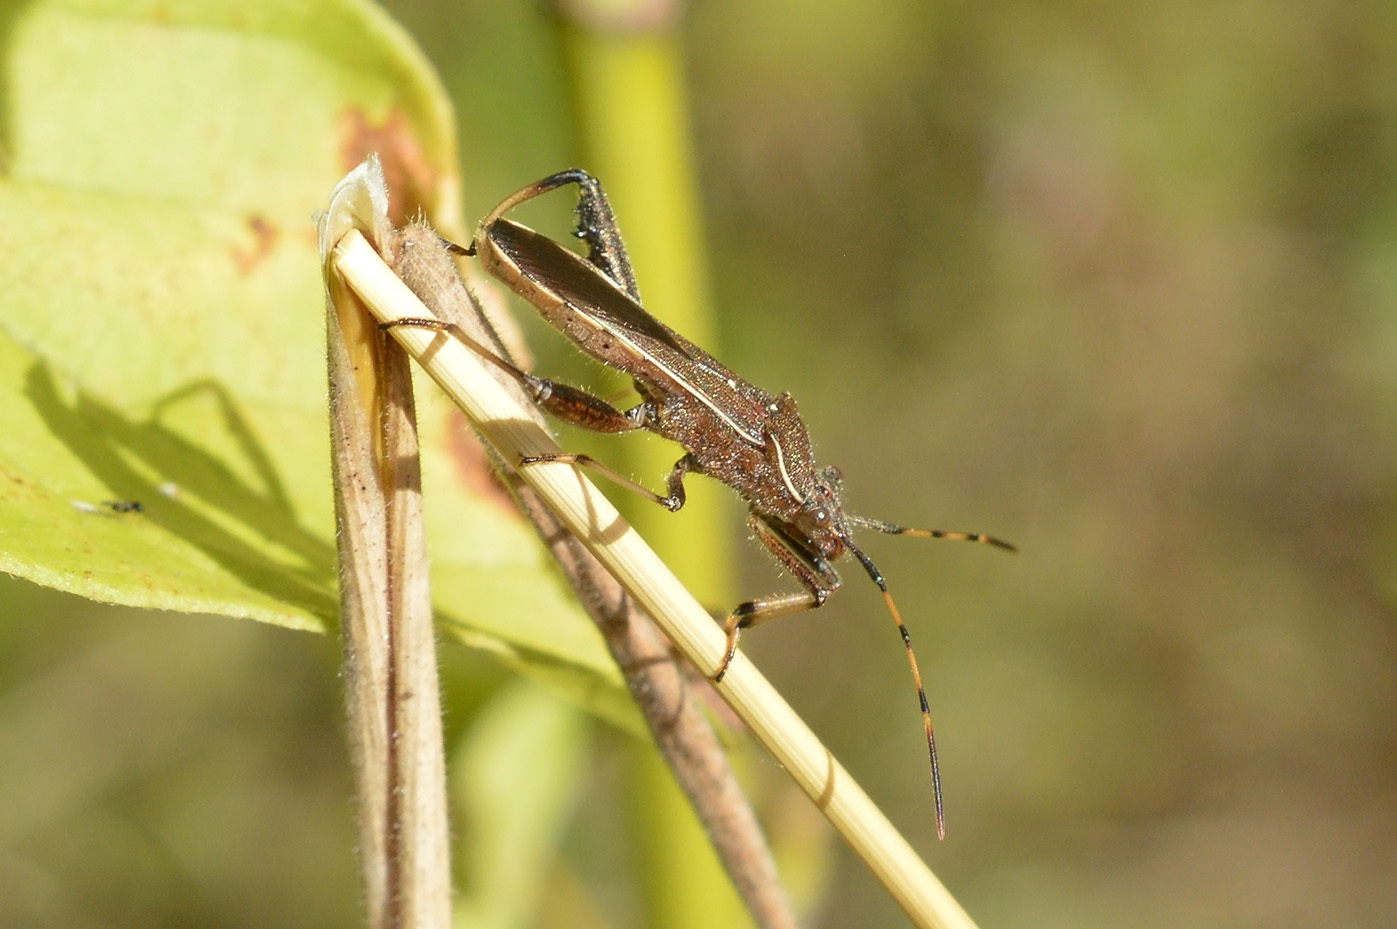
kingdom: Animalia
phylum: Arthropoda
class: Insecta
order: Hemiptera
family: Alydidae
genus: Camptopus
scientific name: Camptopus lateralis
